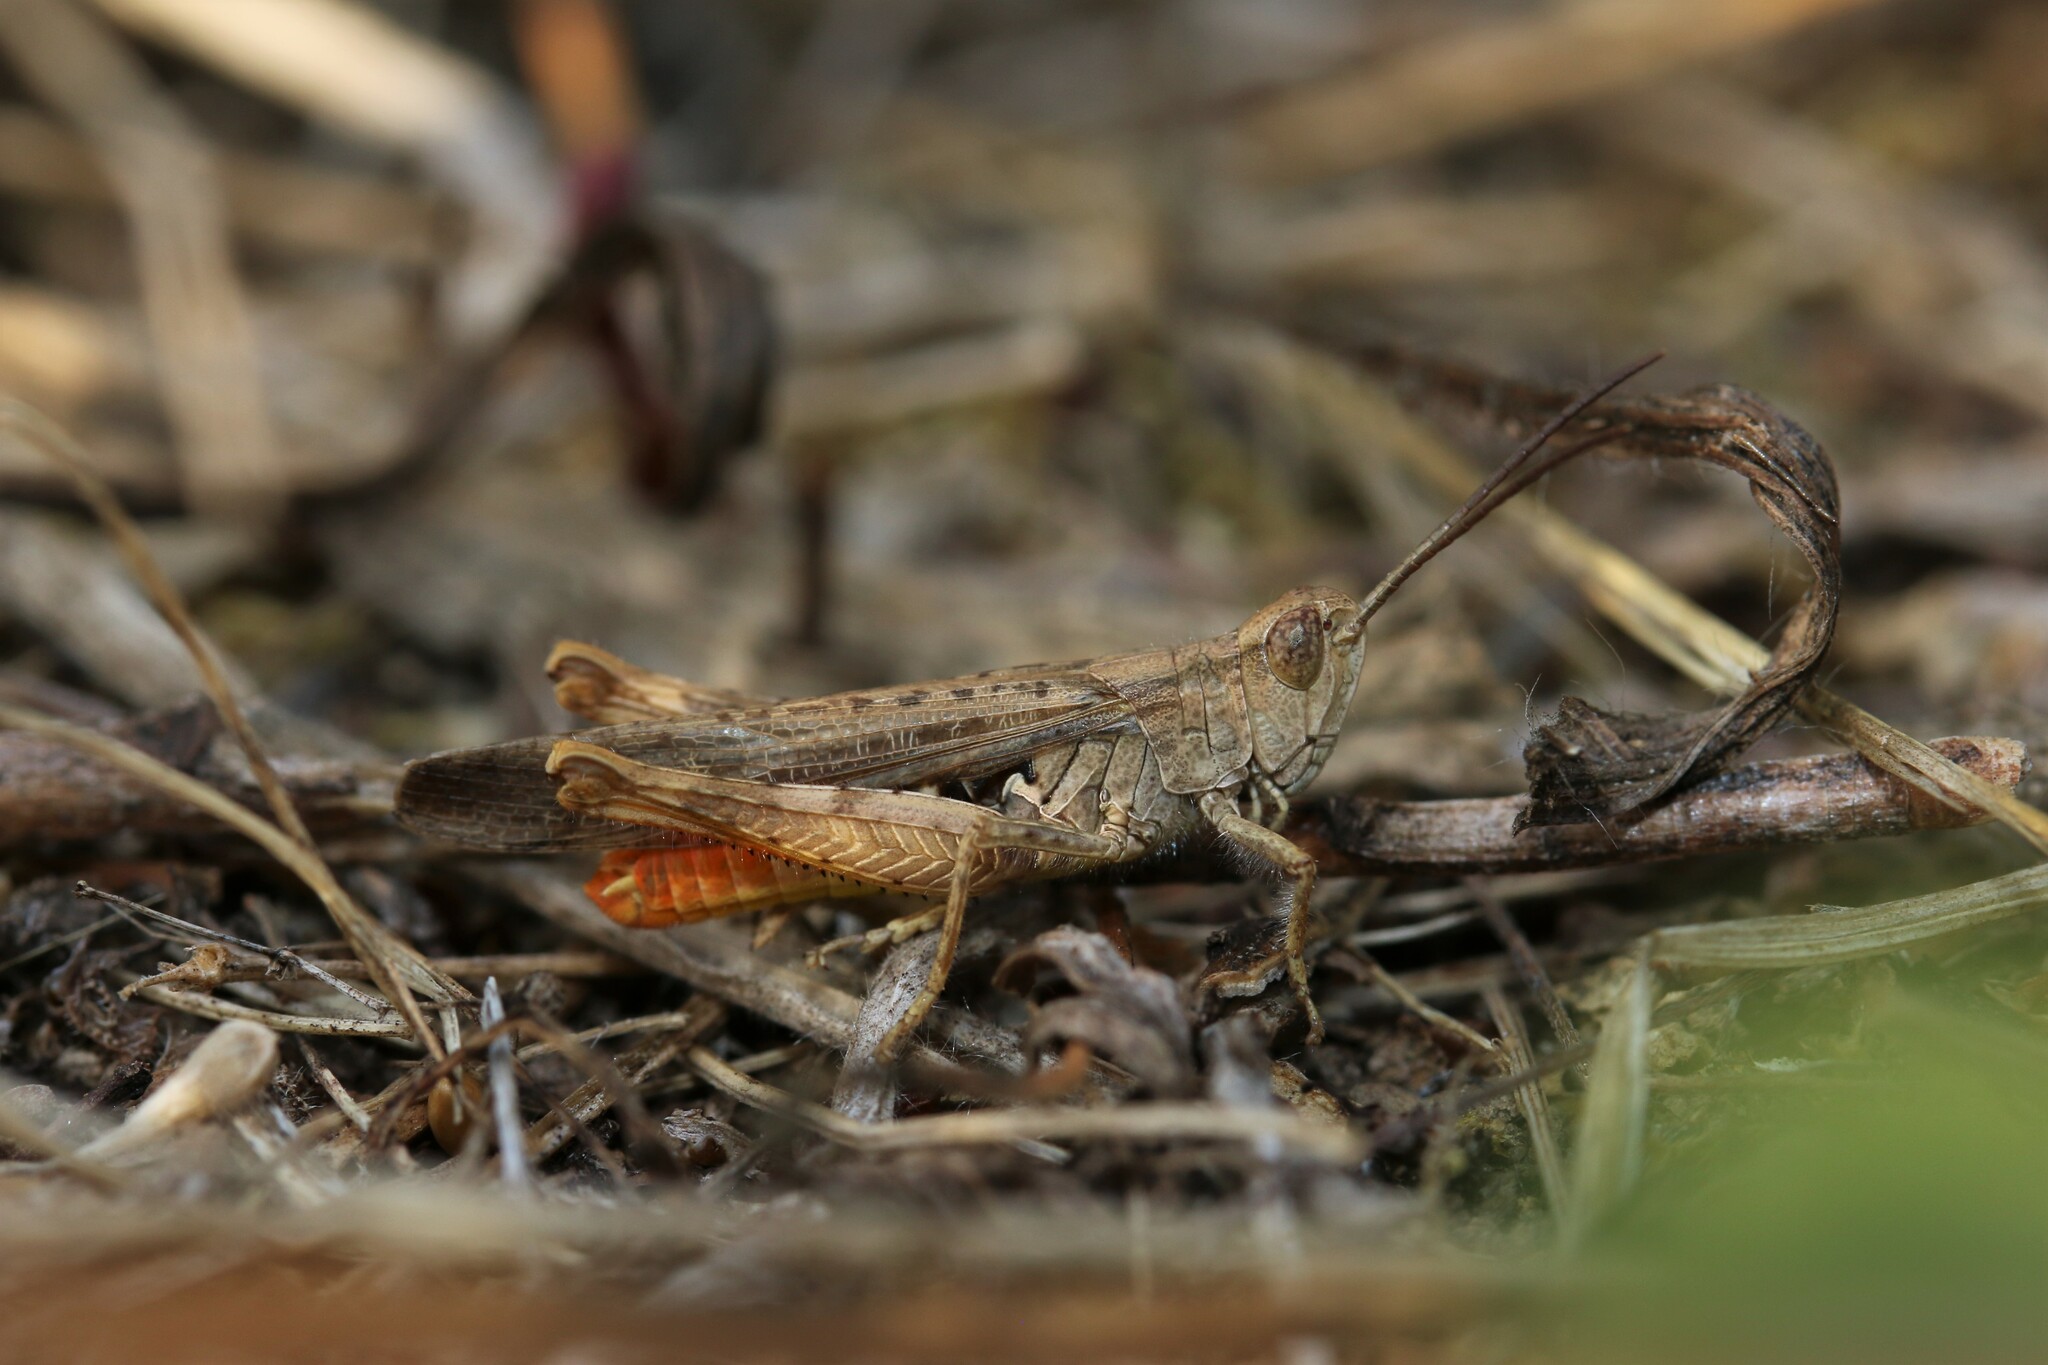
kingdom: Animalia
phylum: Arthropoda
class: Insecta
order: Orthoptera
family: Acrididae
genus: Chorthippus
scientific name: Chorthippus brunneus
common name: Field grasshopper
